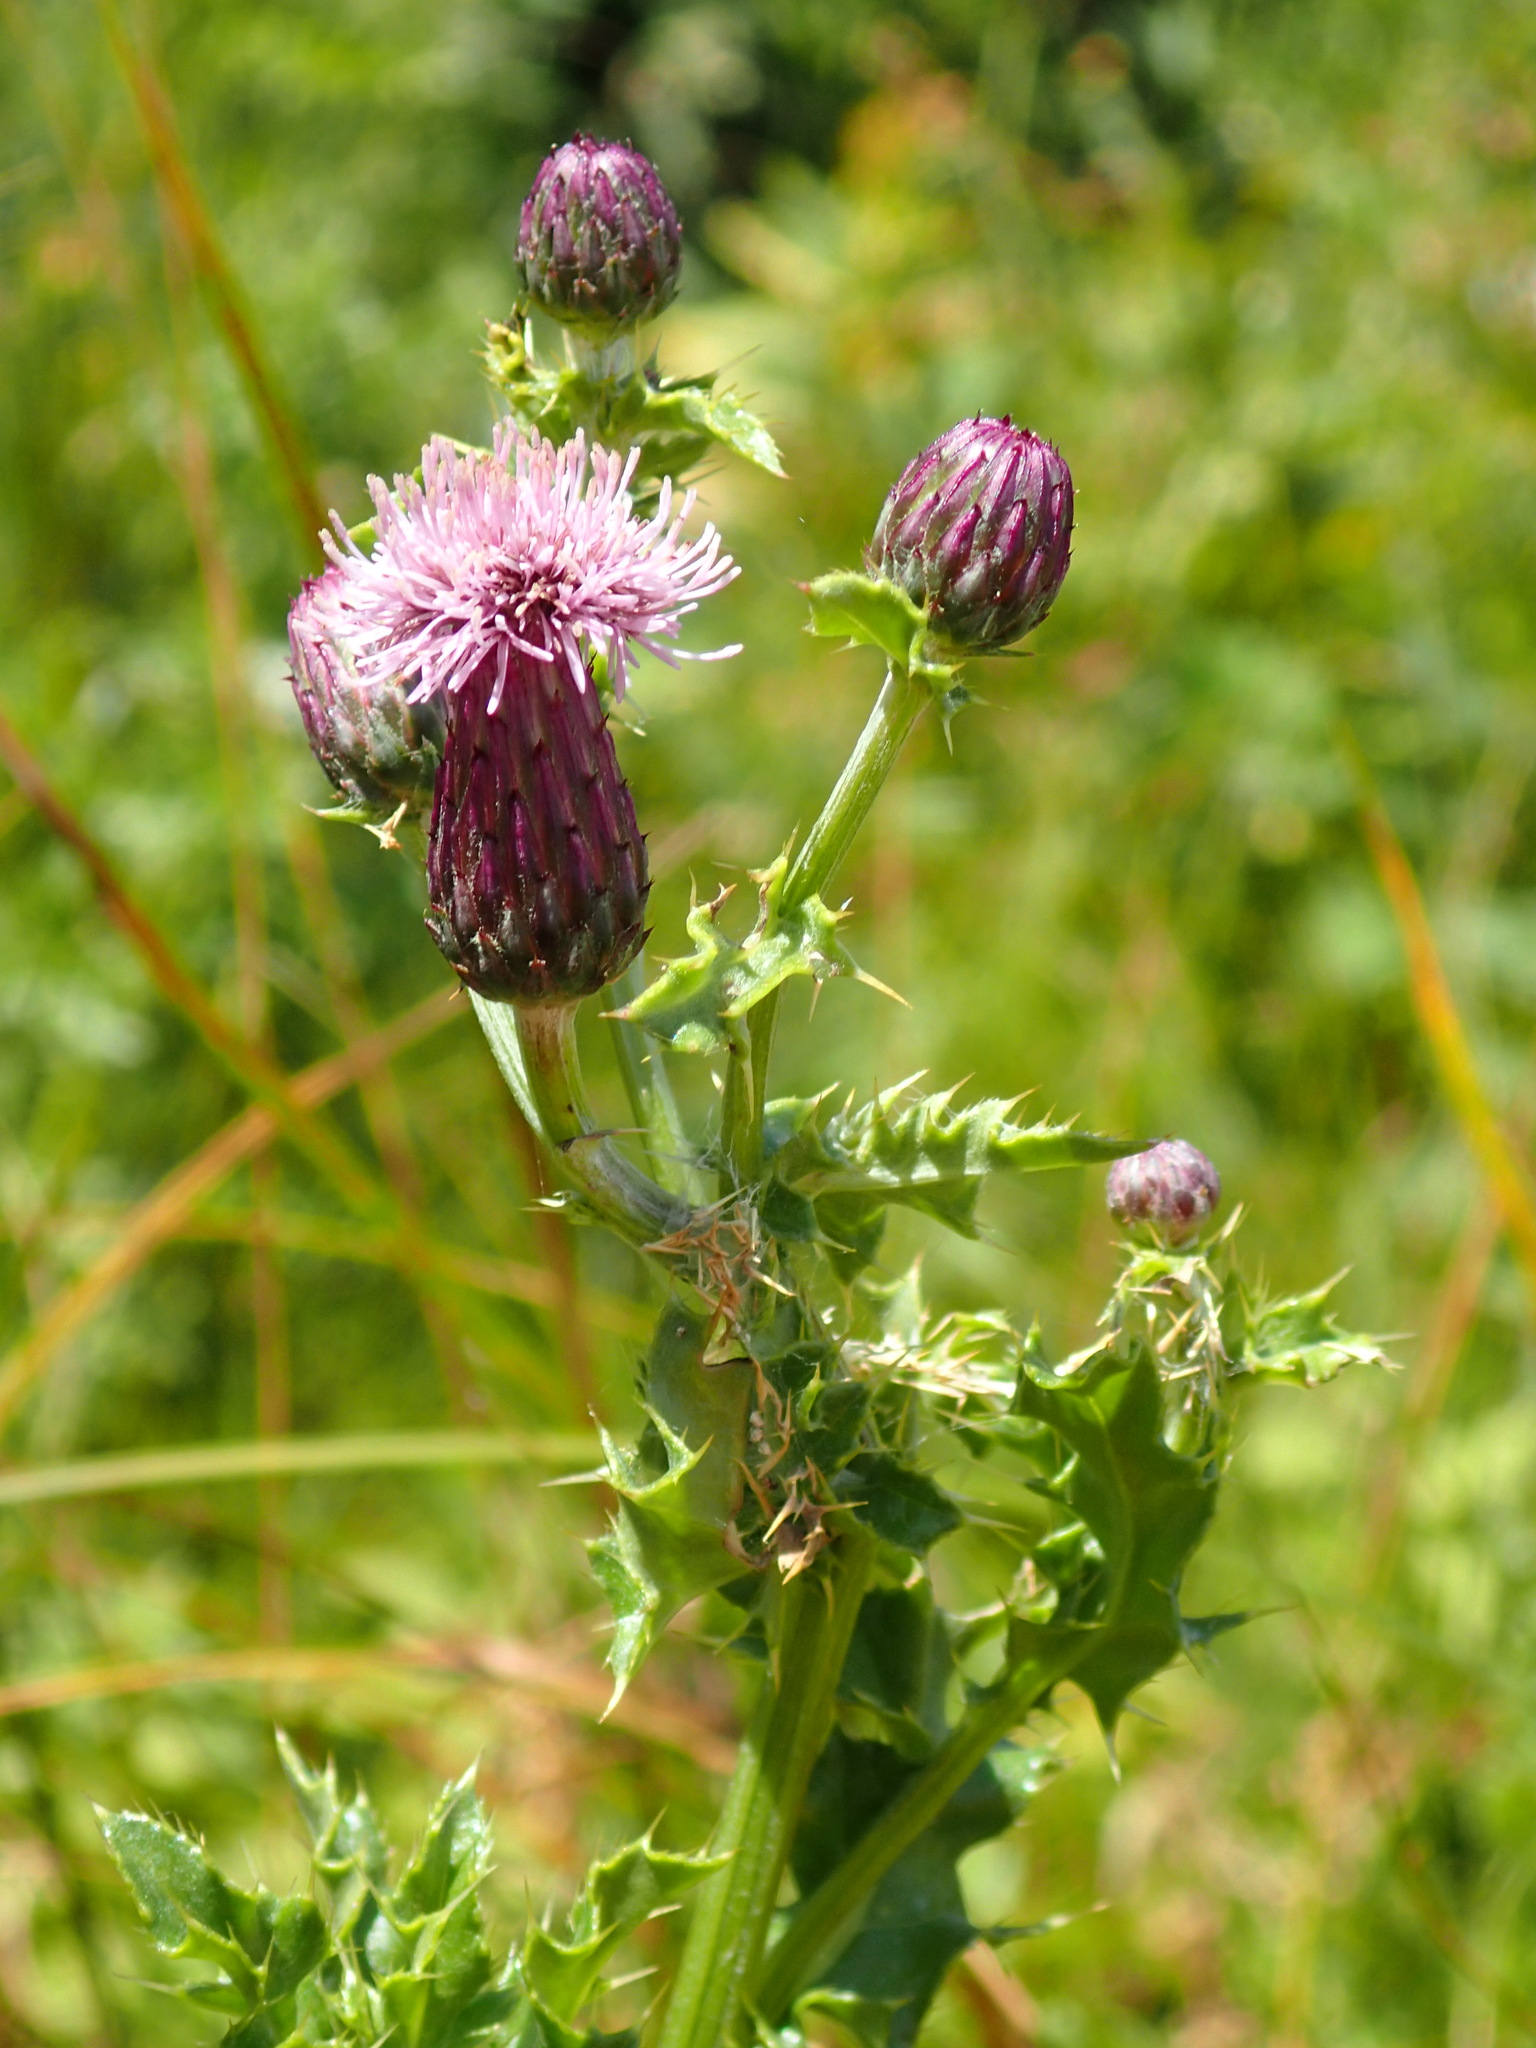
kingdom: Plantae
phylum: Tracheophyta
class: Magnoliopsida
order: Asterales
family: Asteraceae
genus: Cirsium
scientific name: Cirsium arvense
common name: Creeping thistle
